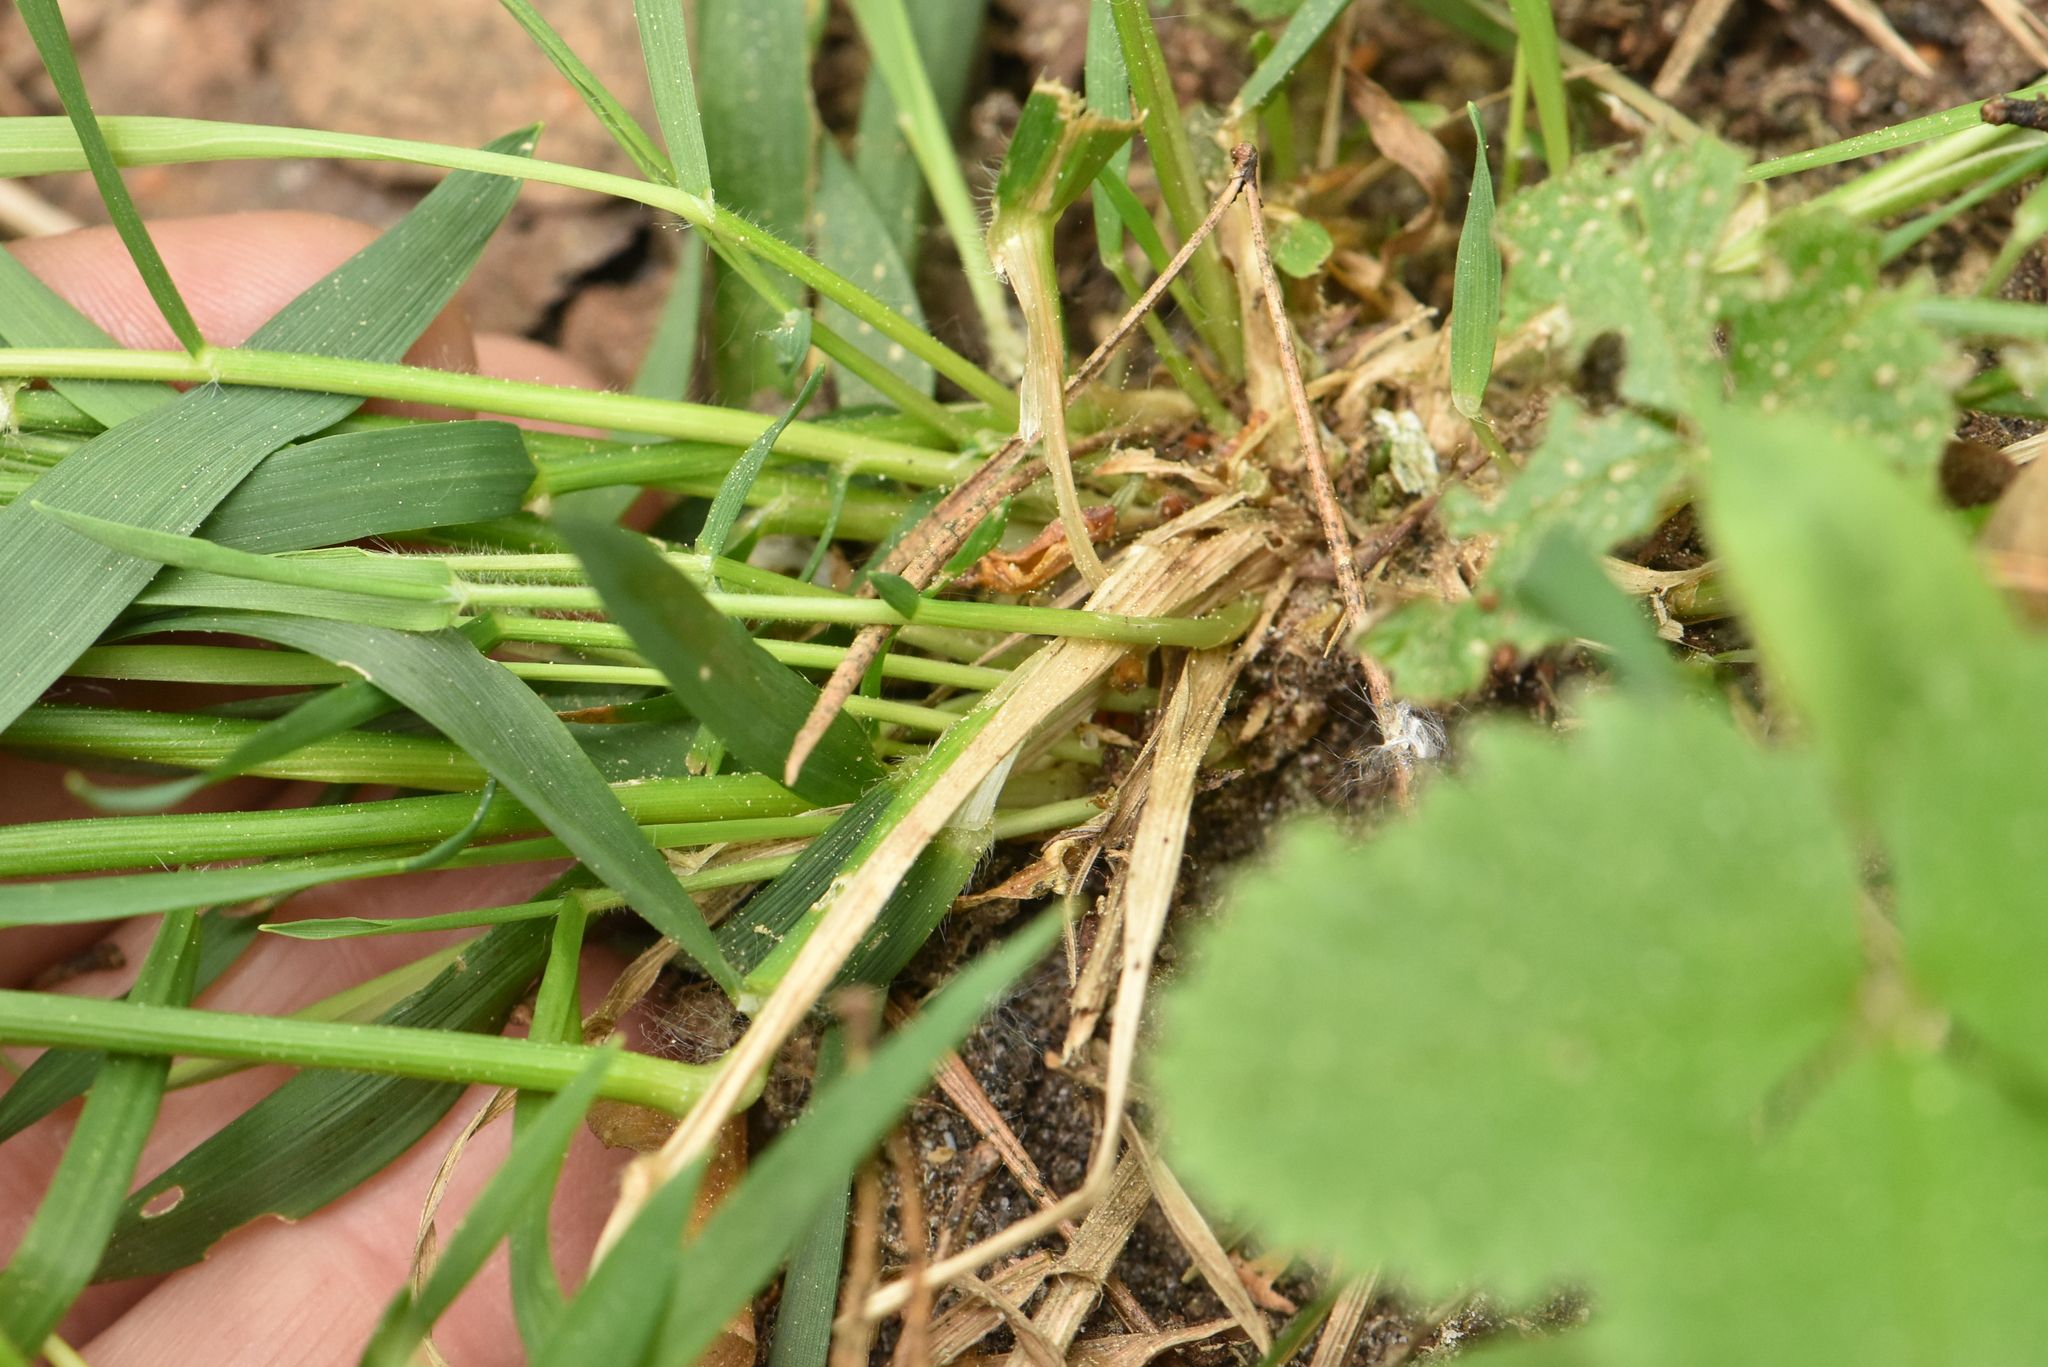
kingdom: Plantae
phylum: Tracheophyta
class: Liliopsida
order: Poales
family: Poaceae
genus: Anthoxanthum
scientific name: Anthoxanthum odoratum
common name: Sweet vernalgrass
